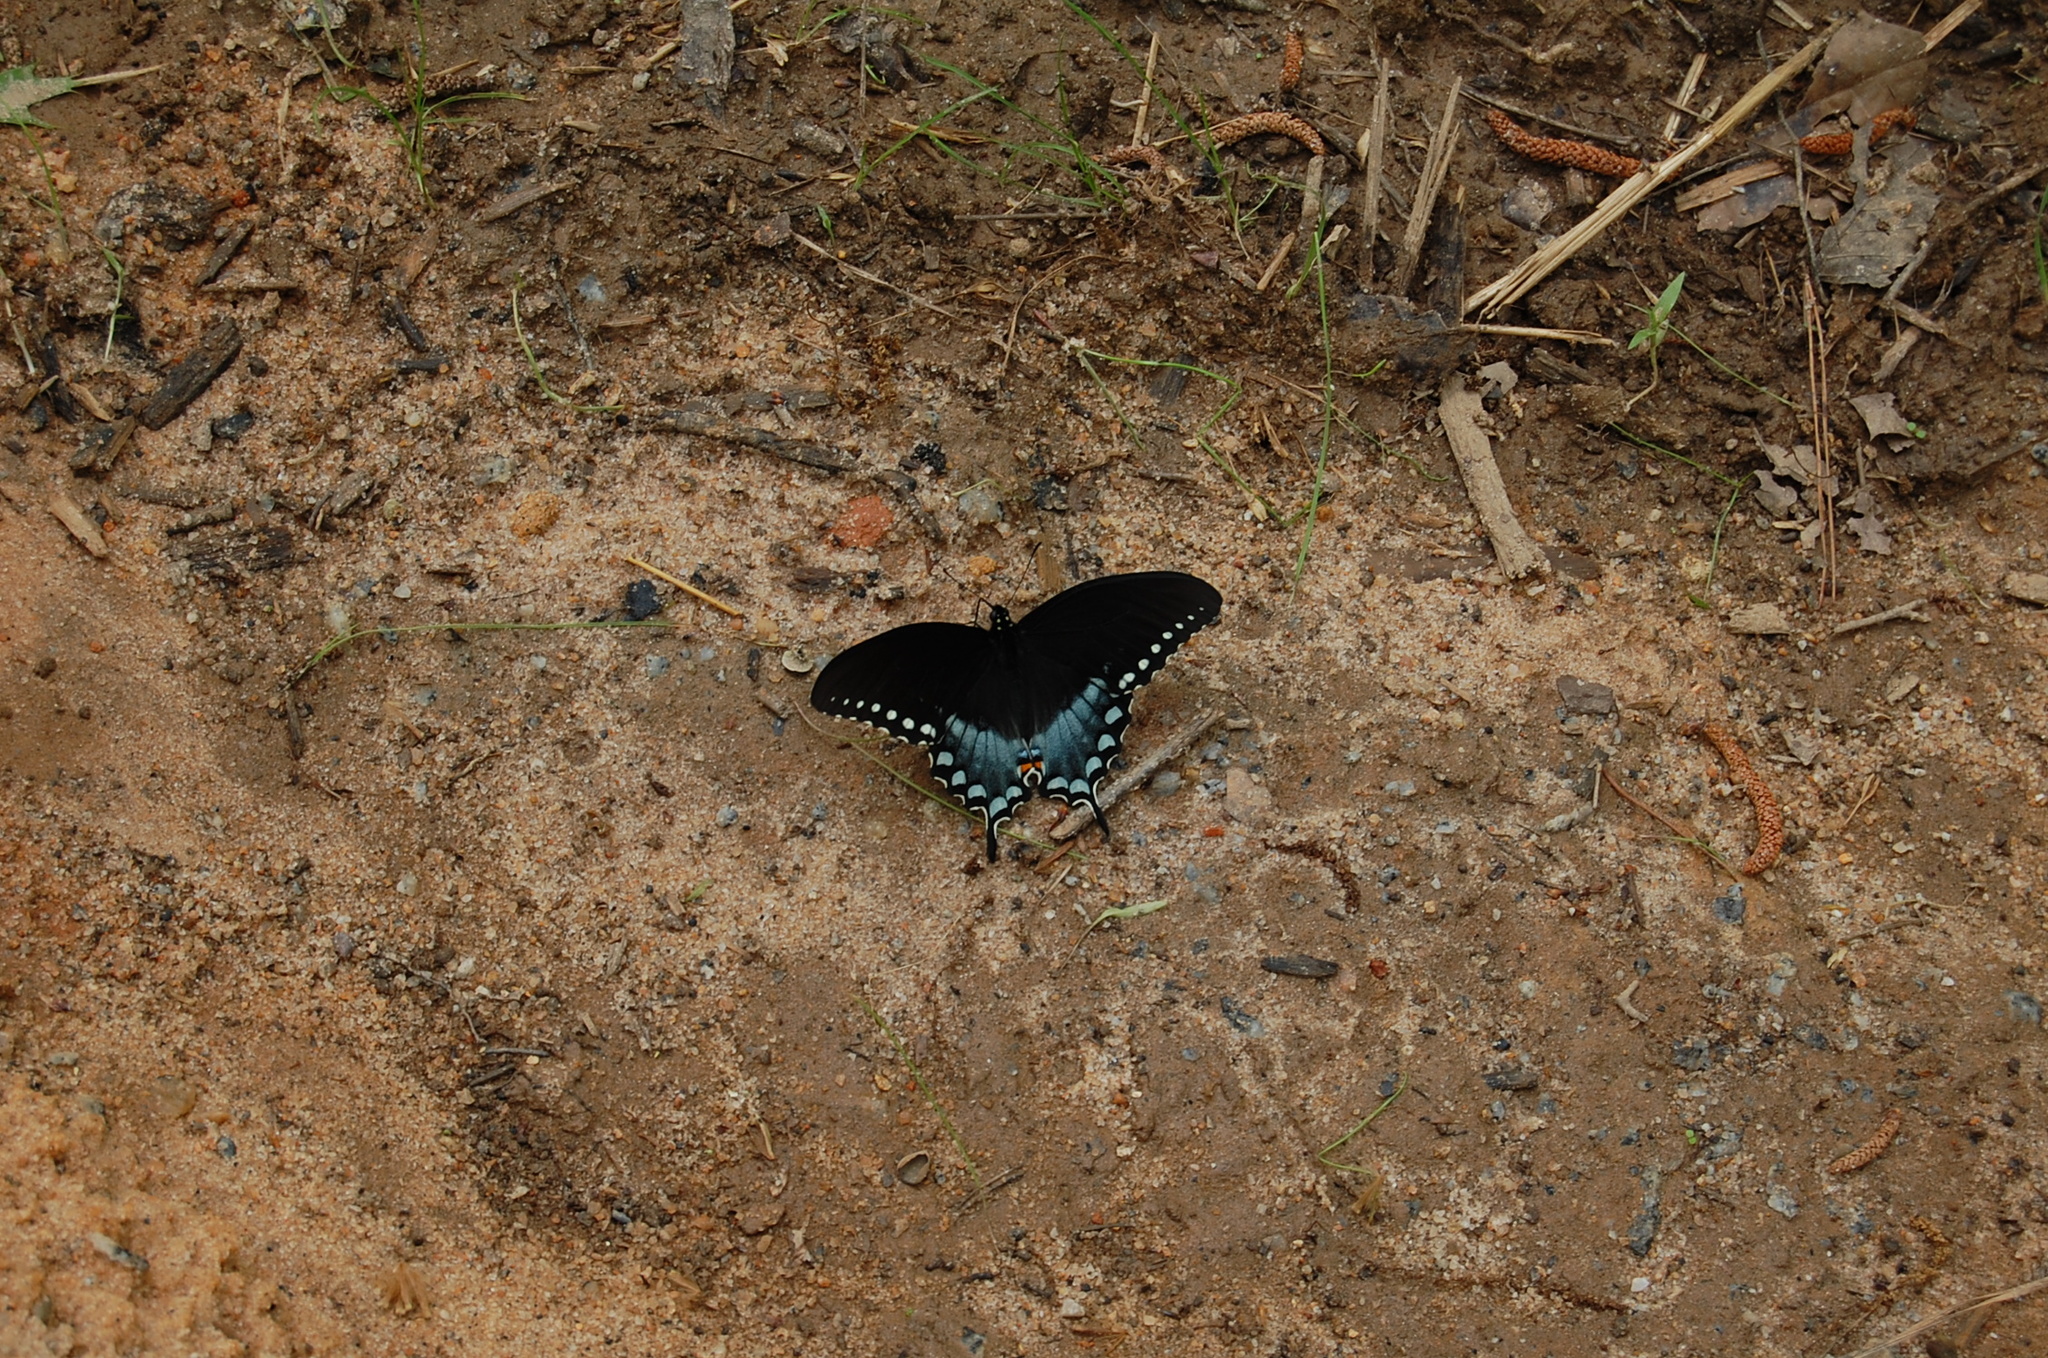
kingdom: Animalia
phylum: Arthropoda
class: Insecta
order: Lepidoptera
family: Papilionidae
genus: Papilio
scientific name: Papilio troilus
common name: Spicebush swallowtail
